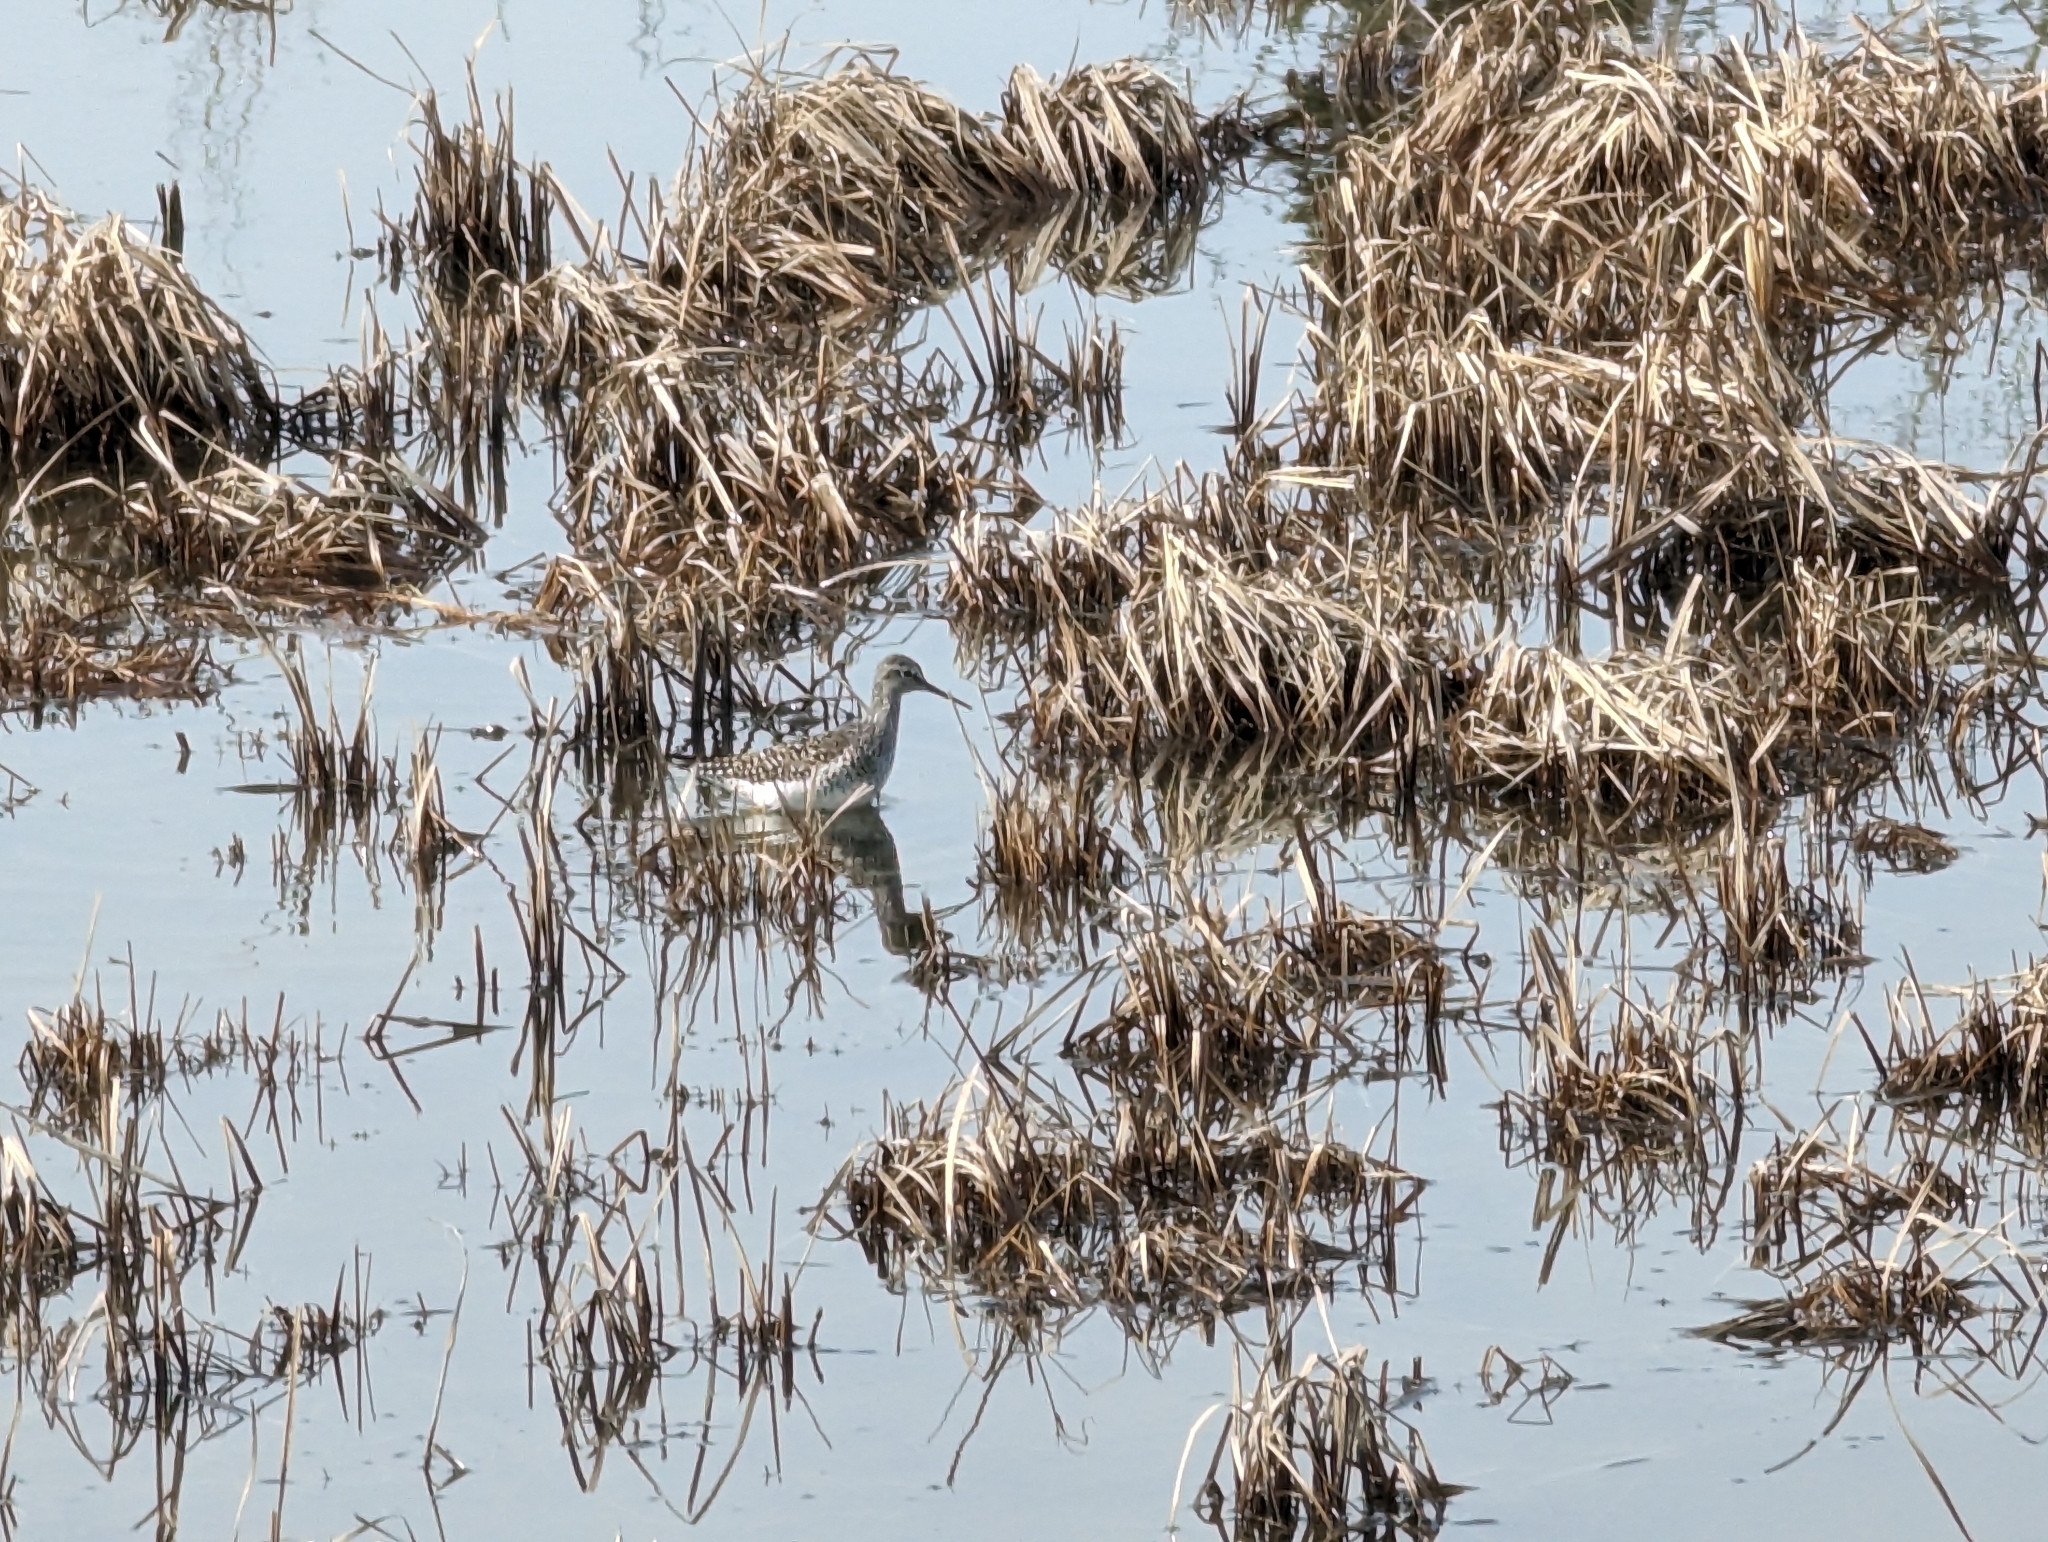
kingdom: Animalia
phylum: Chordata
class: Aves
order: Charadriiformes
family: Scolopacidae
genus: Tringa
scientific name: Tringa flavipes
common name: Lesser yellowlegs
